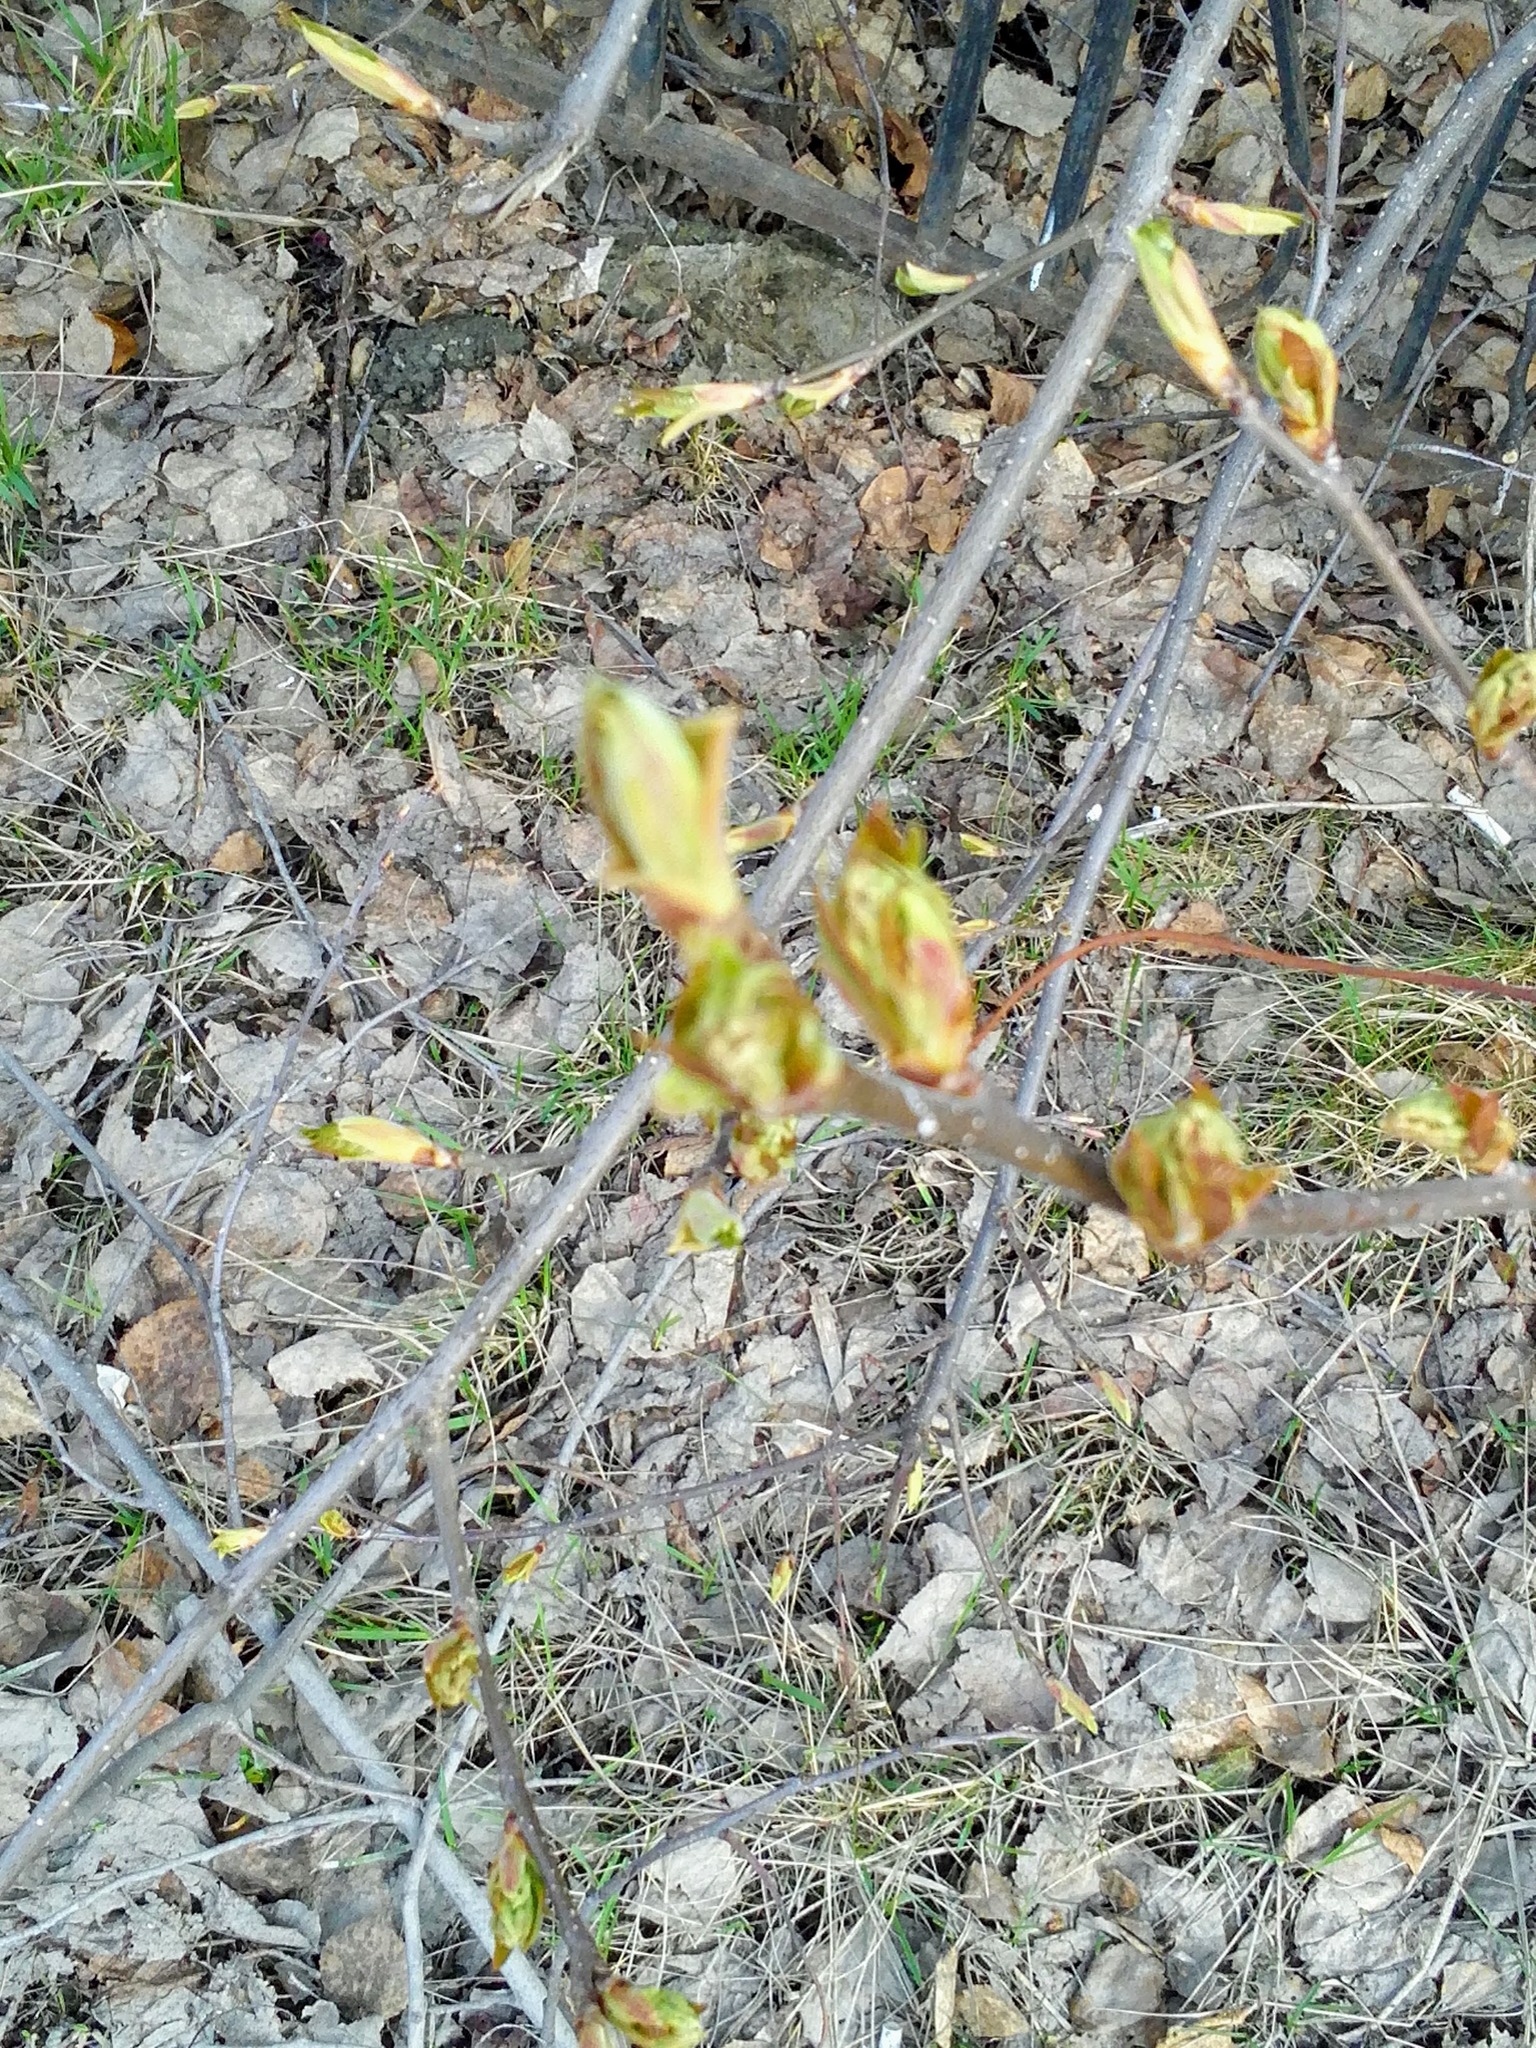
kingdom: Plantae
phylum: Tracheophyta
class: Magnoliopsida
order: Rosales
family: Rosaceae
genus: Prunus
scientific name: Prunus padus
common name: Bird cherry
